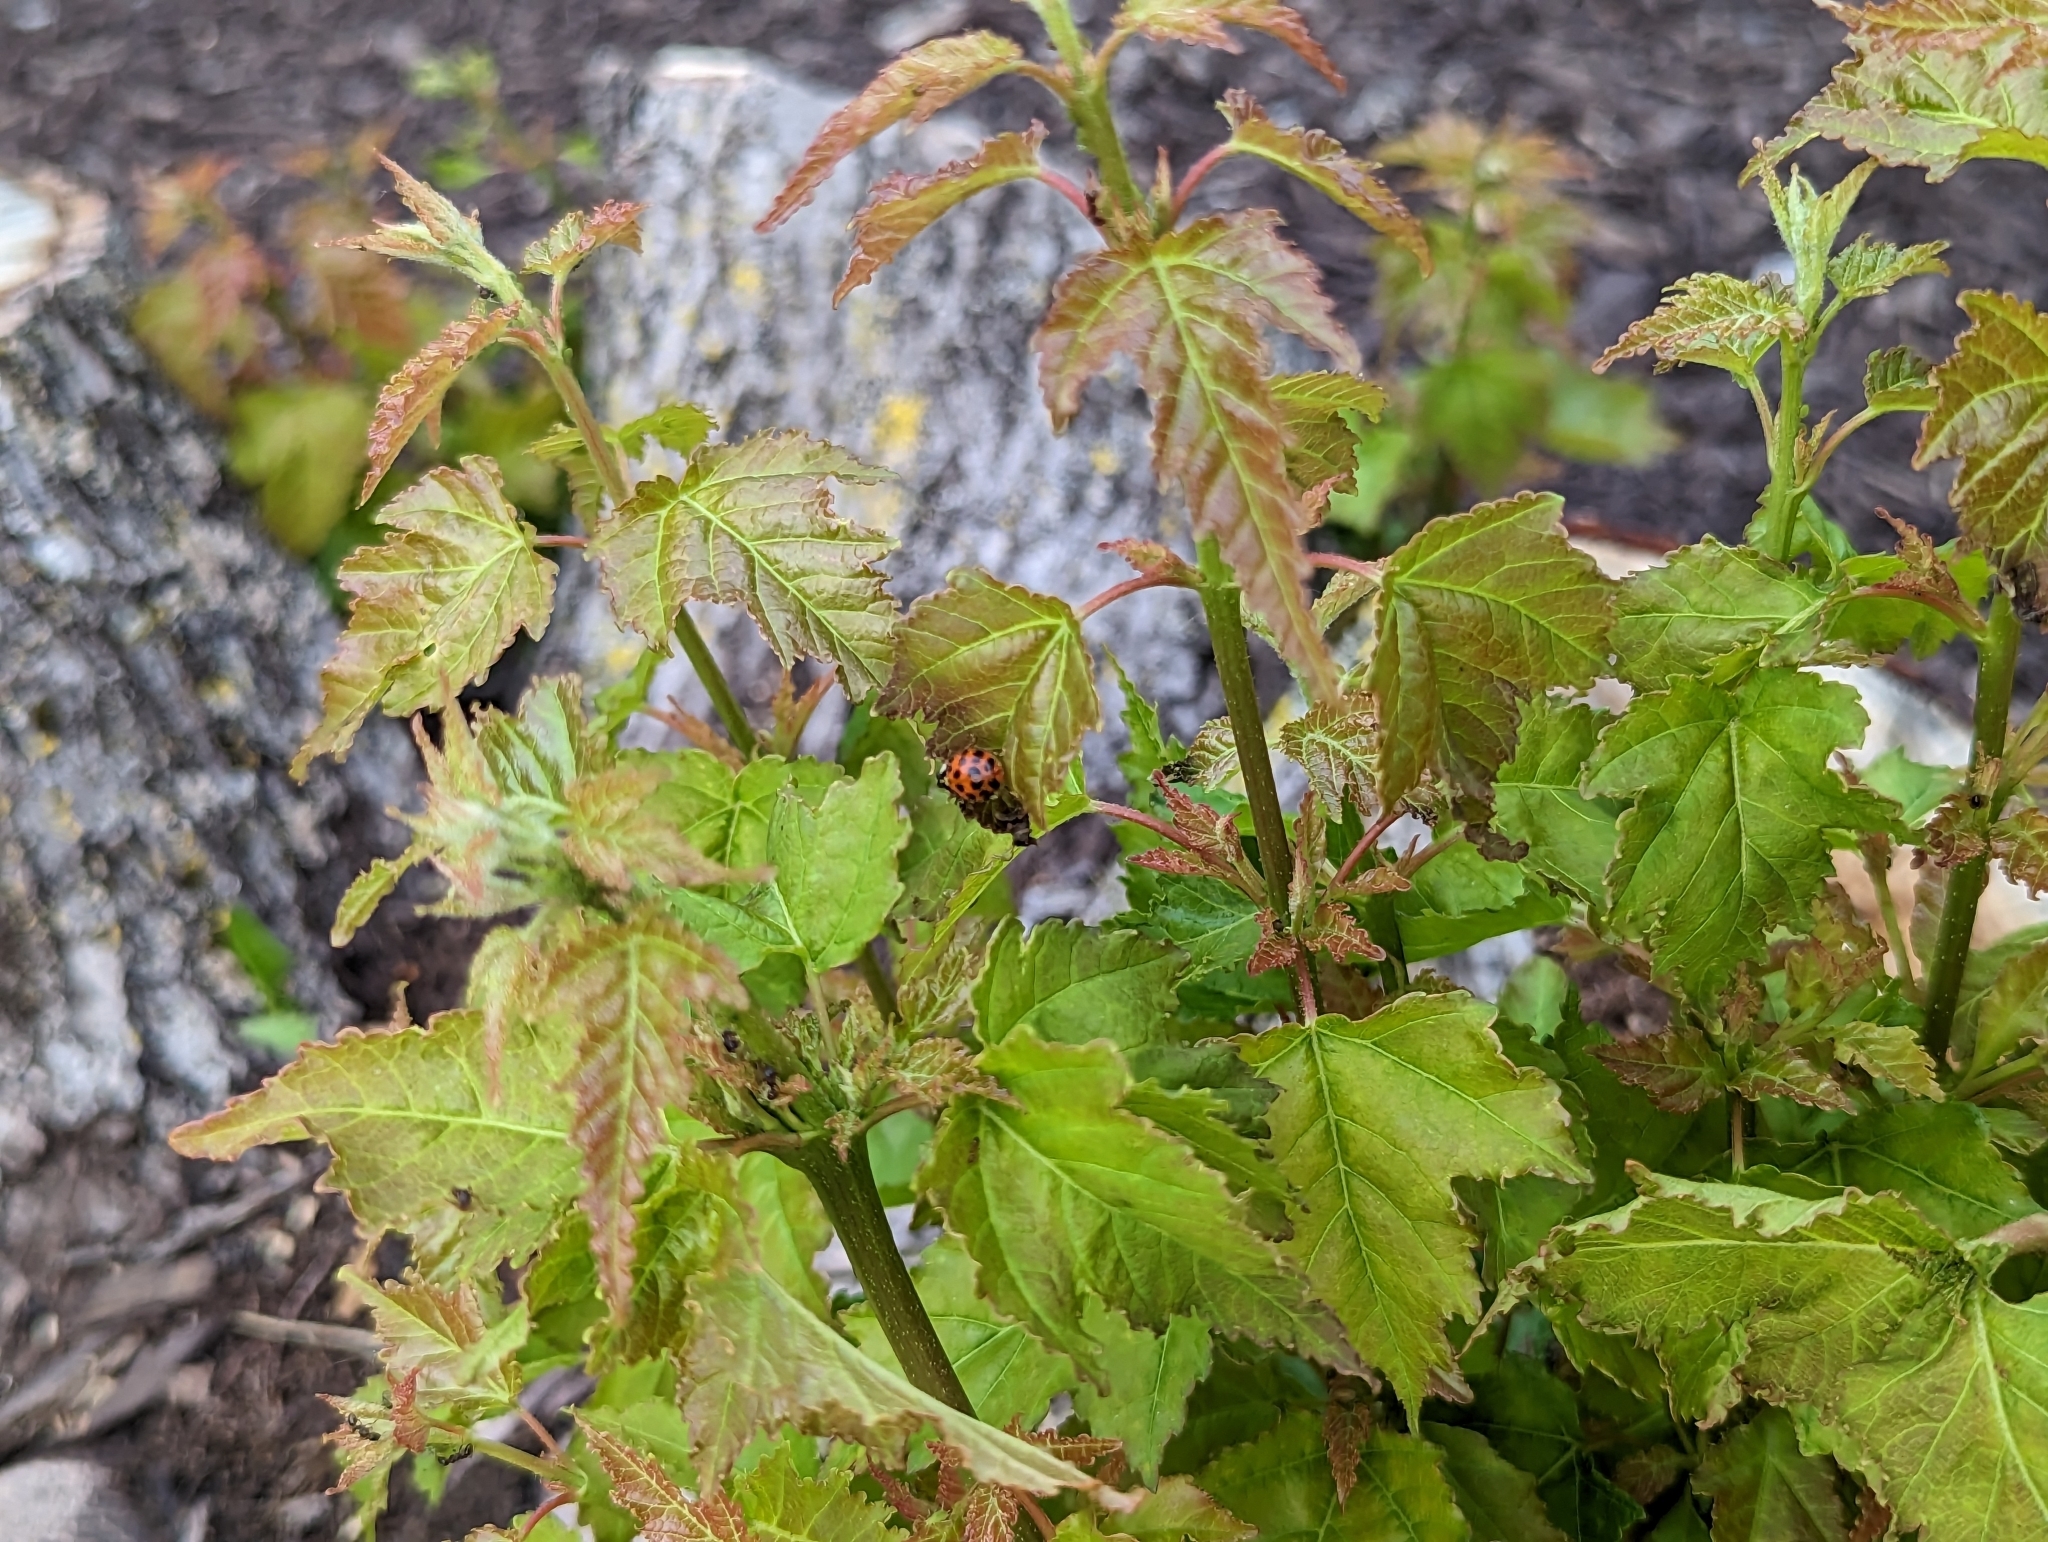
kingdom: Animalia
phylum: Arthropoda
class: Insecta
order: Coleoptera
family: Coccinellidae
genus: Harmonia
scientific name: Harmonia axyridis
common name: Harlequin ladybird
